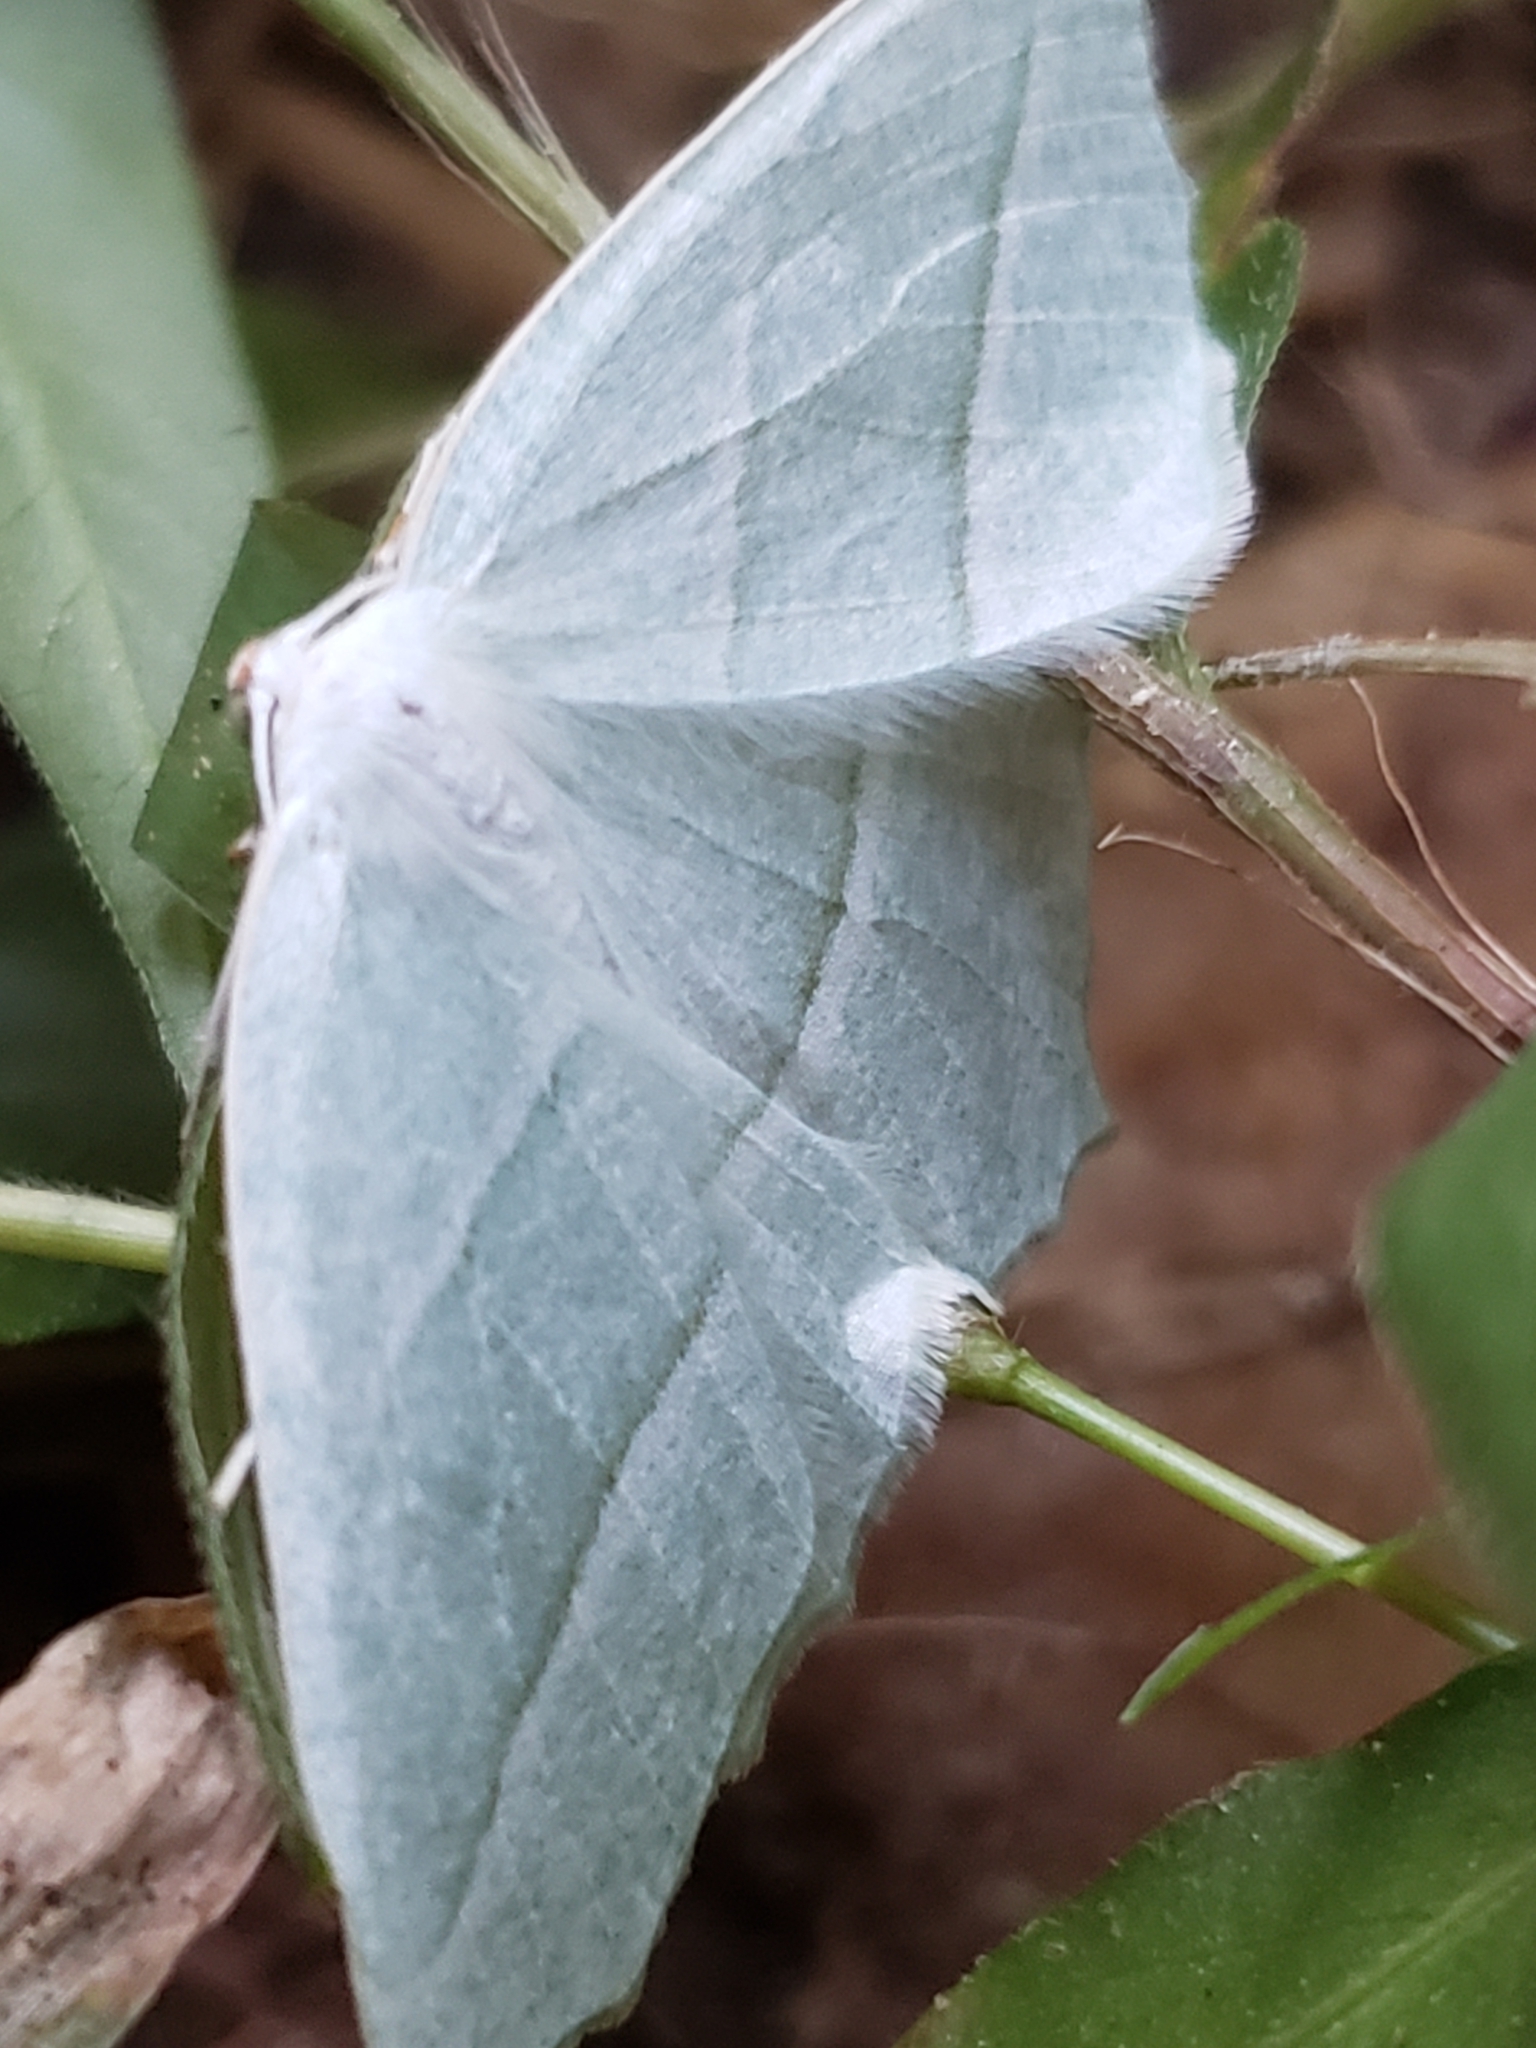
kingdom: Animalia
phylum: Arthropoda
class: Insecta
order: Lepidoptera
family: Geometridae
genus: Campaea
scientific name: Campaea perlata
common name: Fringed looper
